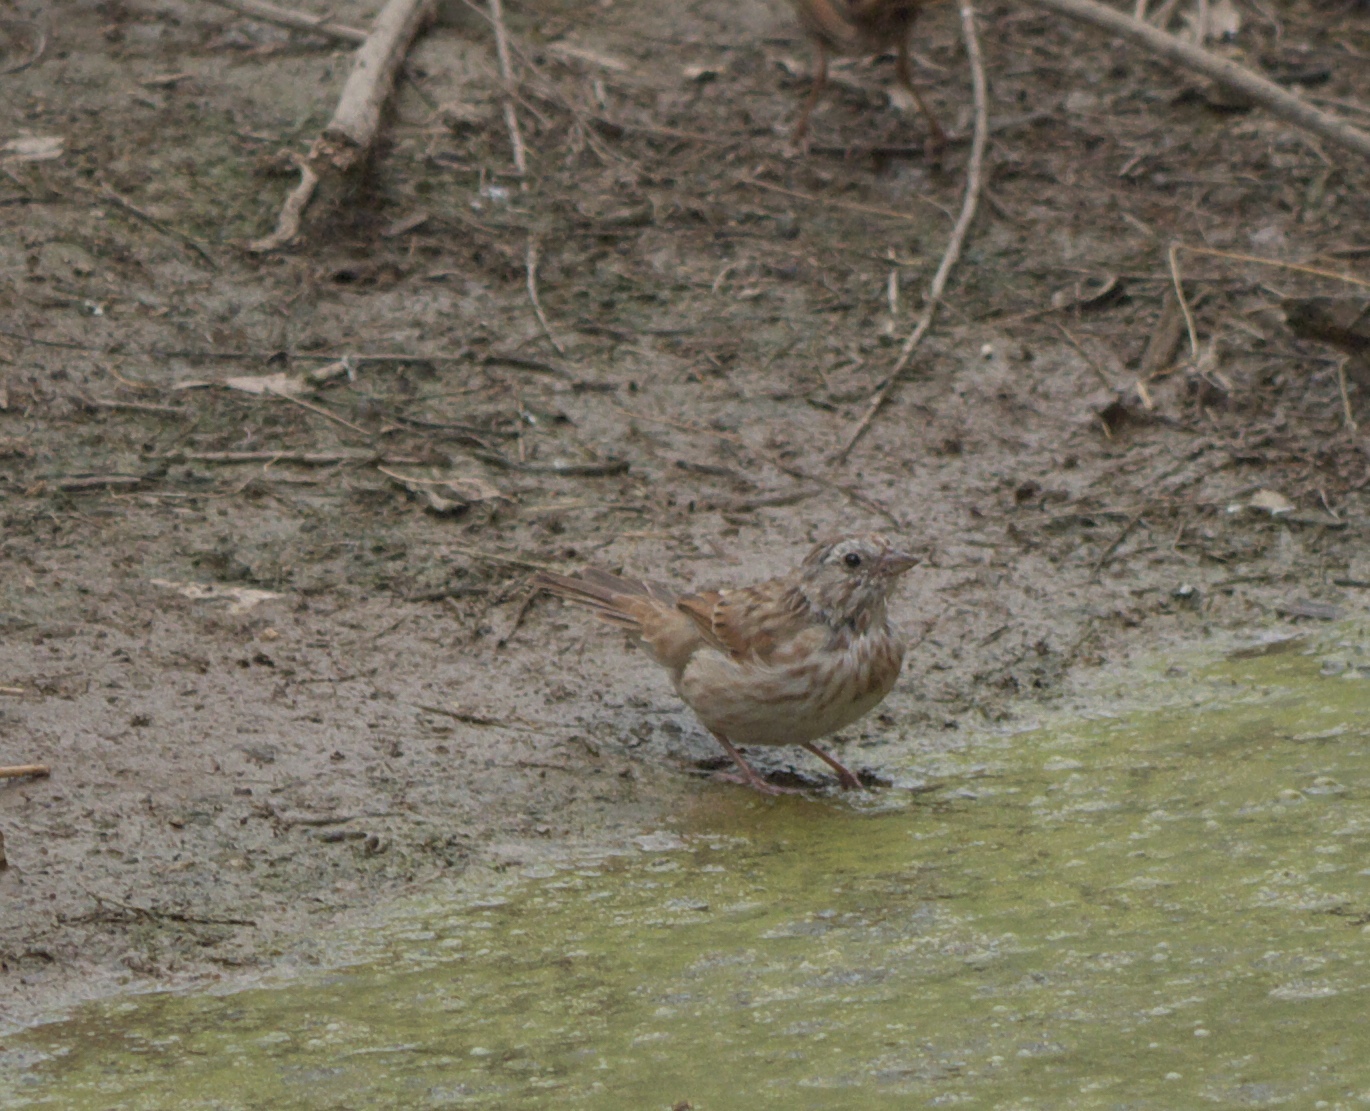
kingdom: Animalia
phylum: Chordata
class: Aves
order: Passeriformes
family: Passerellidae
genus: Melospiza
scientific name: Melospiza melodia
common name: Song sparrow
